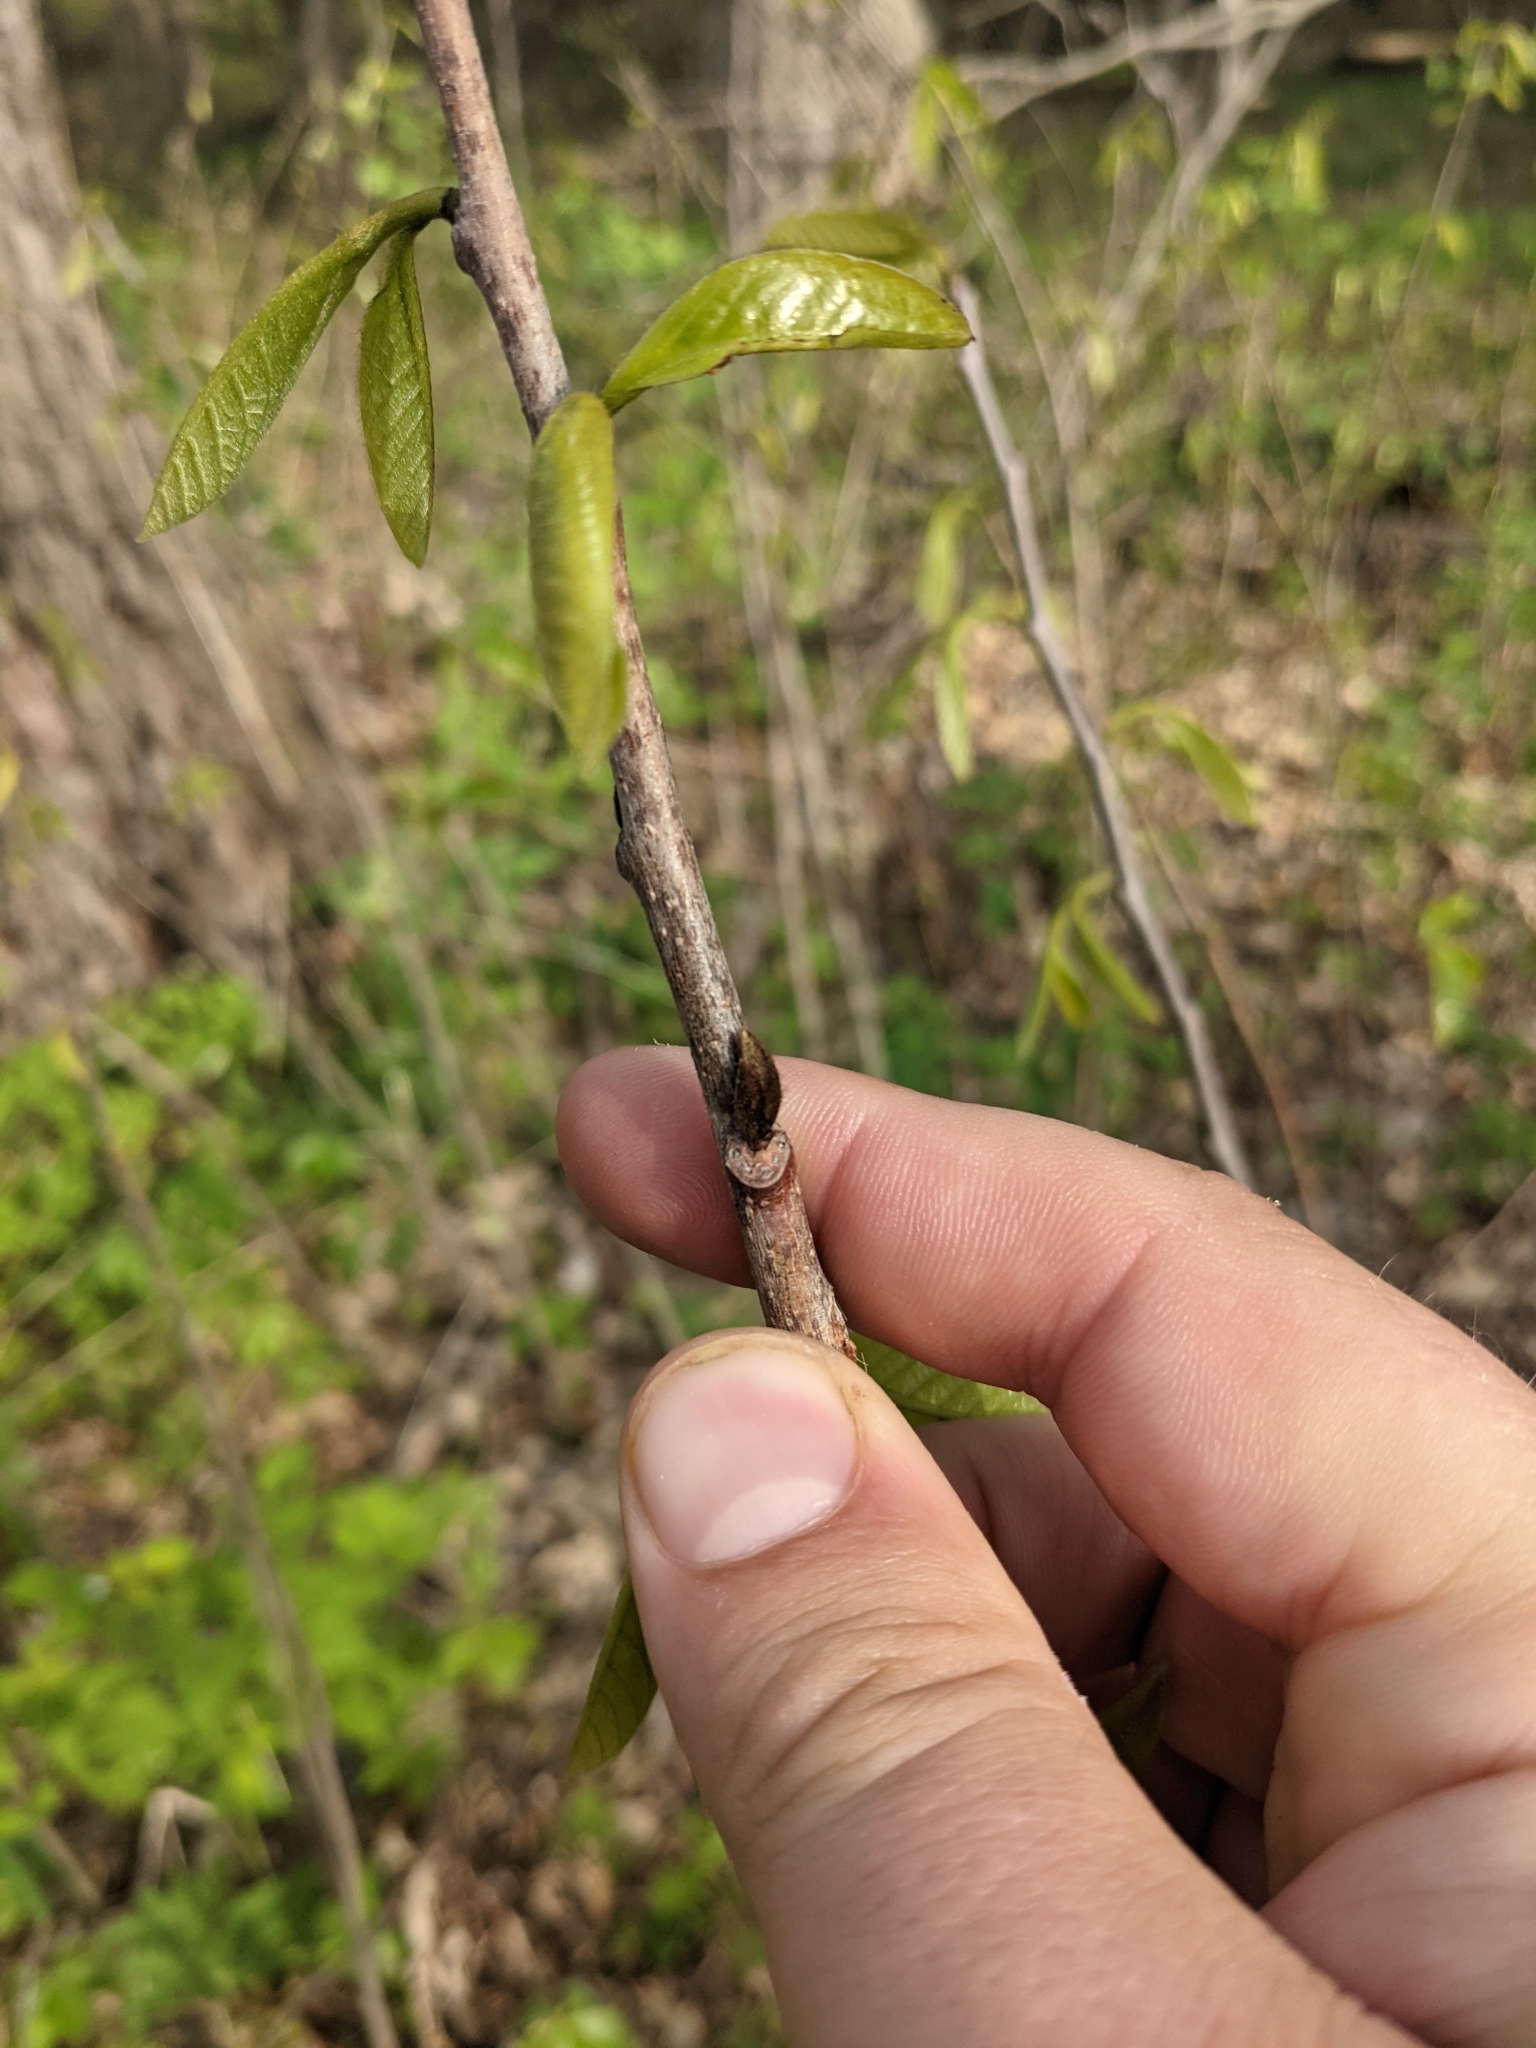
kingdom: Plantae
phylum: Tracheophyta
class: Magnoliopsida
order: Magnoliales
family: Annonaceae
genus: Asimina
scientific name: Asimina triloba
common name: Dog-banana
